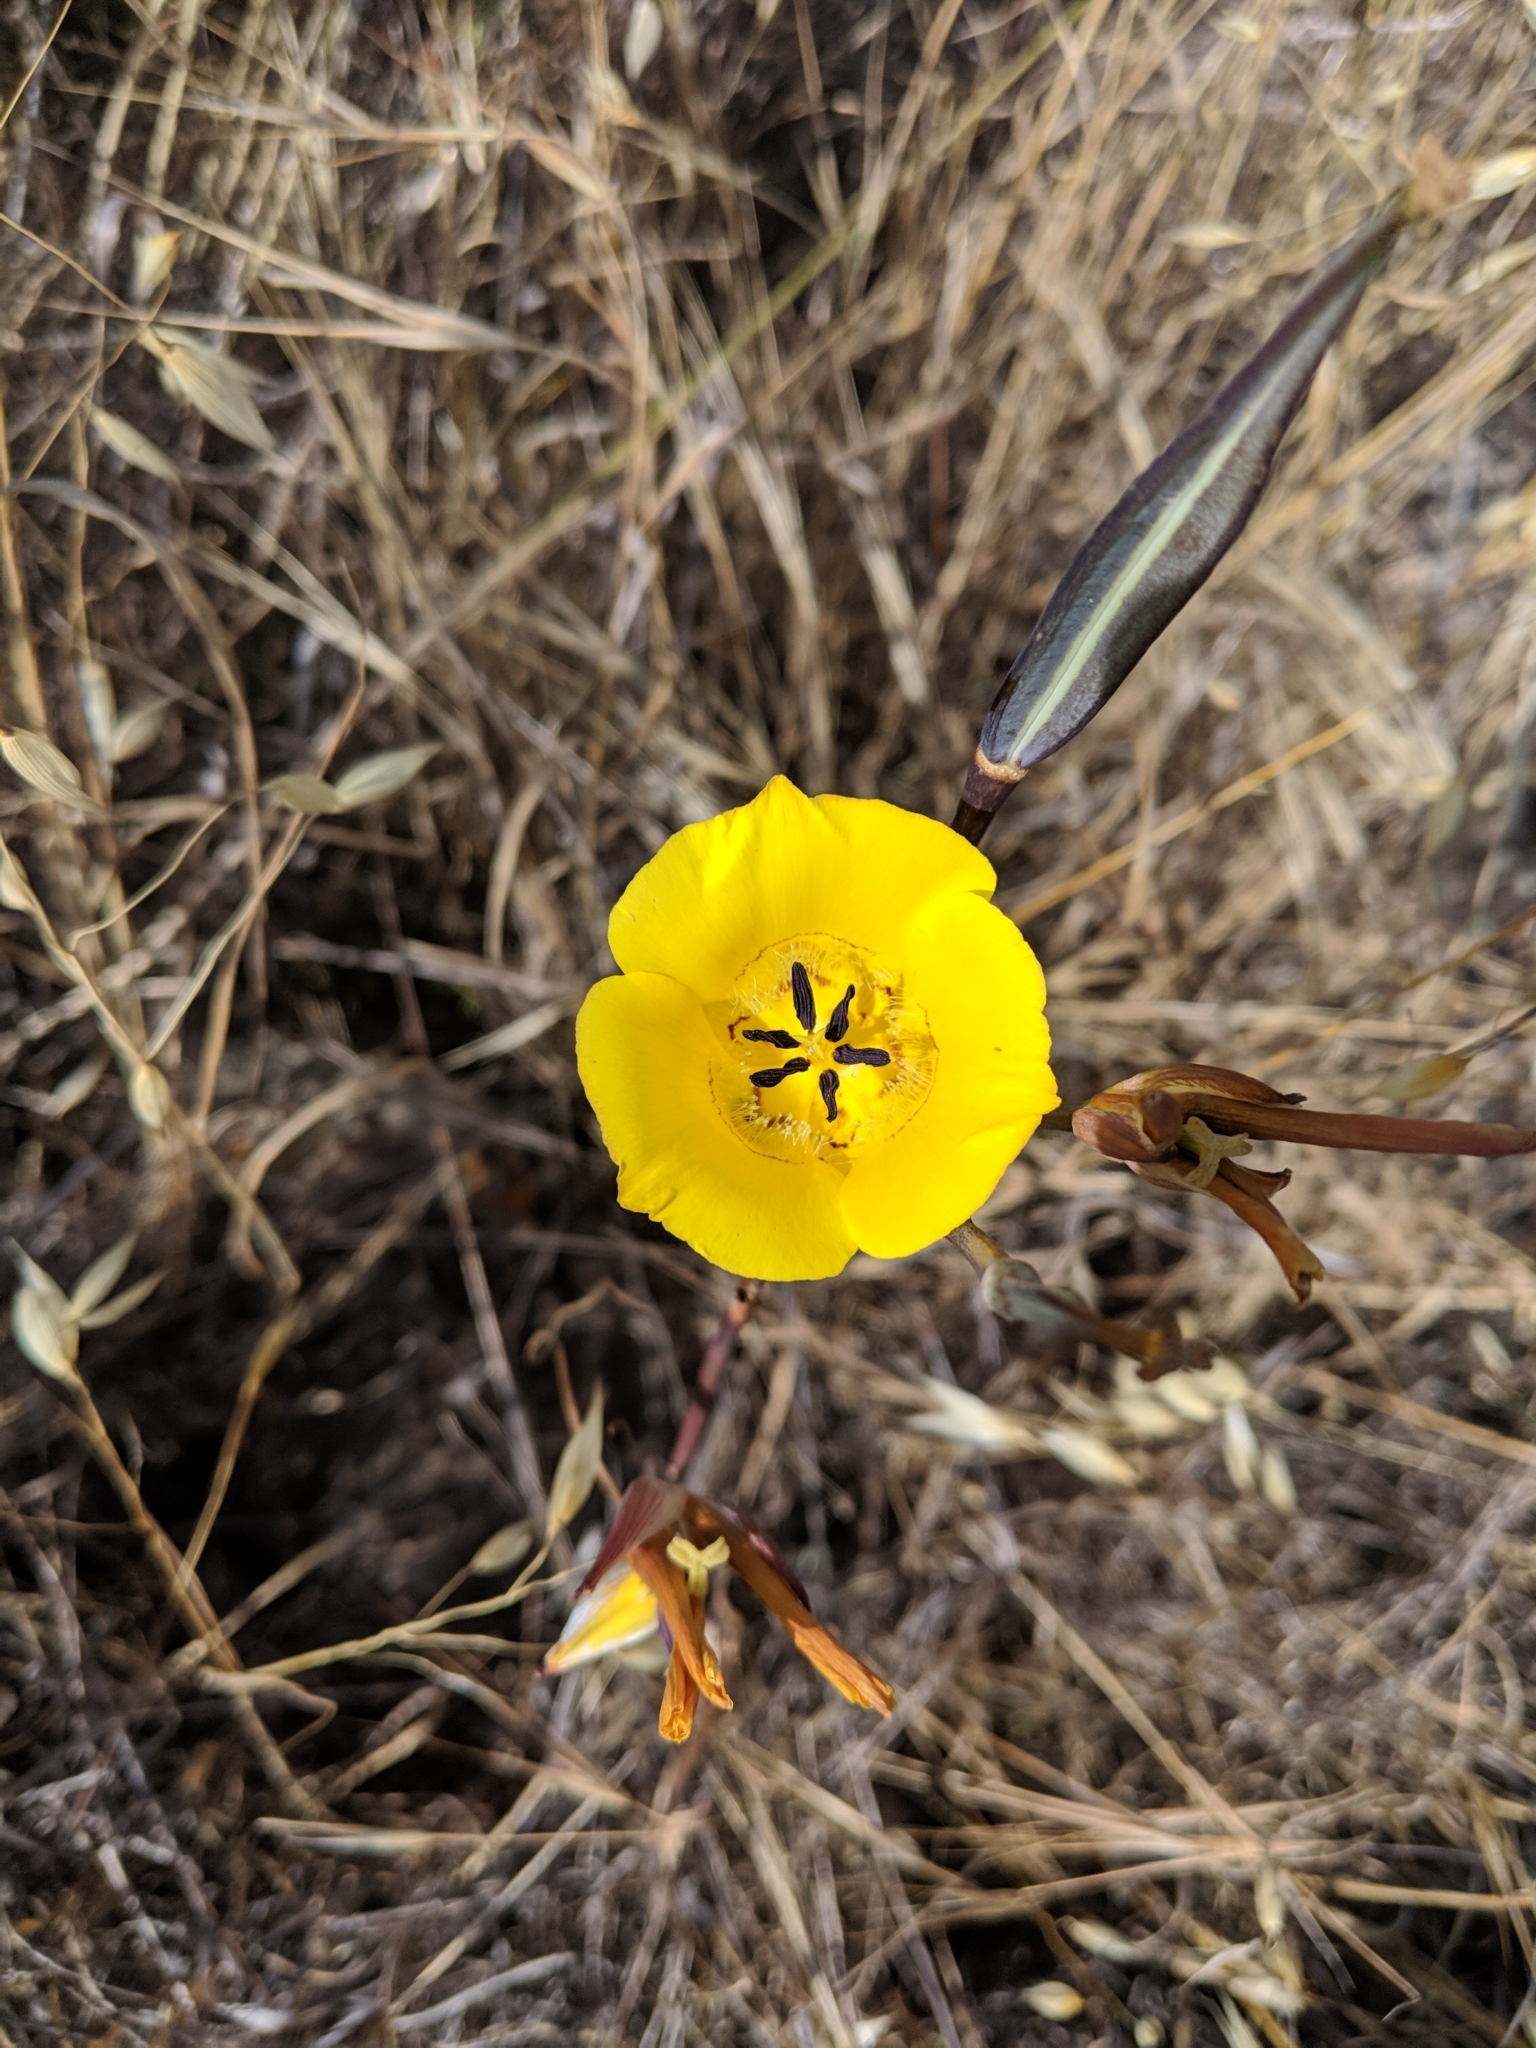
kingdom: Plantae
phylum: Tracheophyta
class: Liliopsida
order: Liliales
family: Liliaceae
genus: Calochortus
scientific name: Calochortus clavatus
